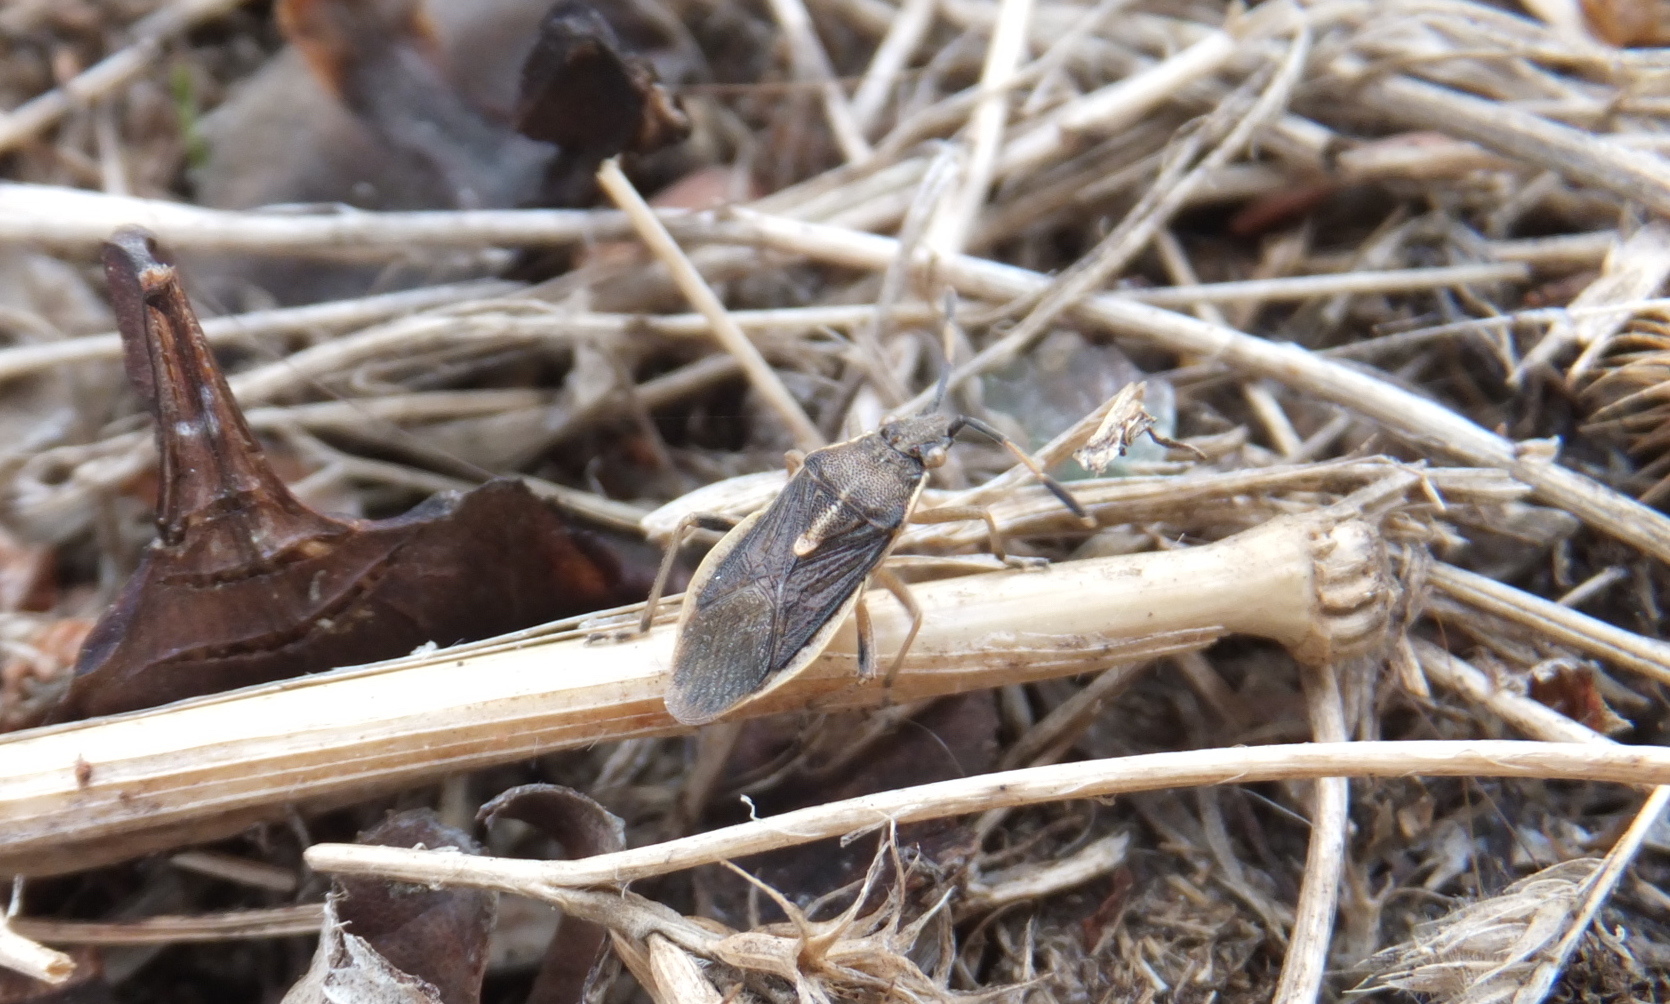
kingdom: Animalia
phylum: Arthropoda
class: Insecta
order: Hemiptera
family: Rhopalidae
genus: Maccevethus
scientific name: Maccevethus
